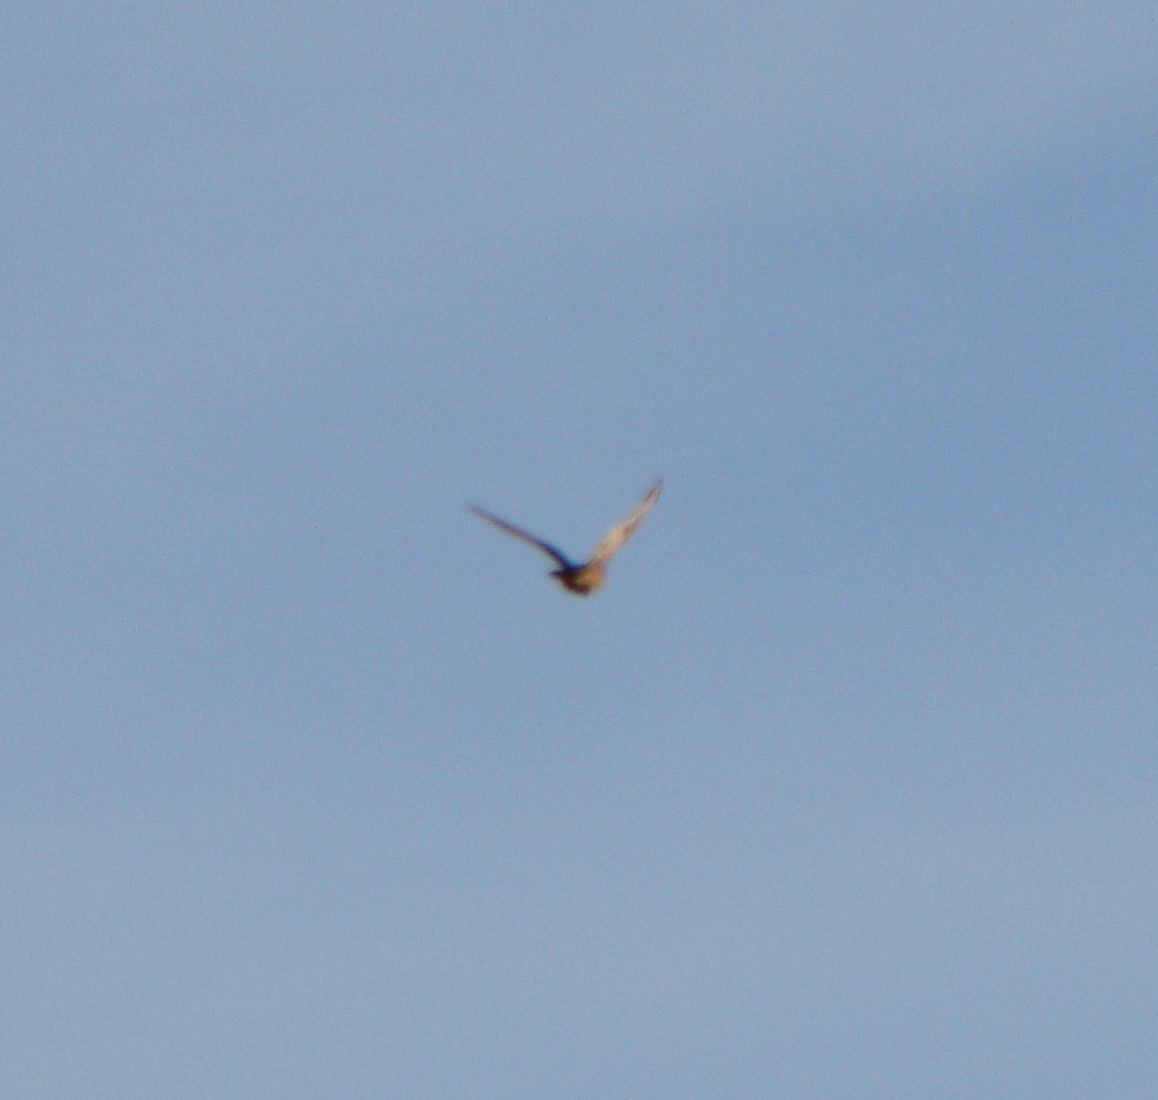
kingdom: Animalia
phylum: Chordata
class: Aves
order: Falconiformes
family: Falconidae
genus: Falco
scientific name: Falco novaeseelandiae
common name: New zealand falcon
